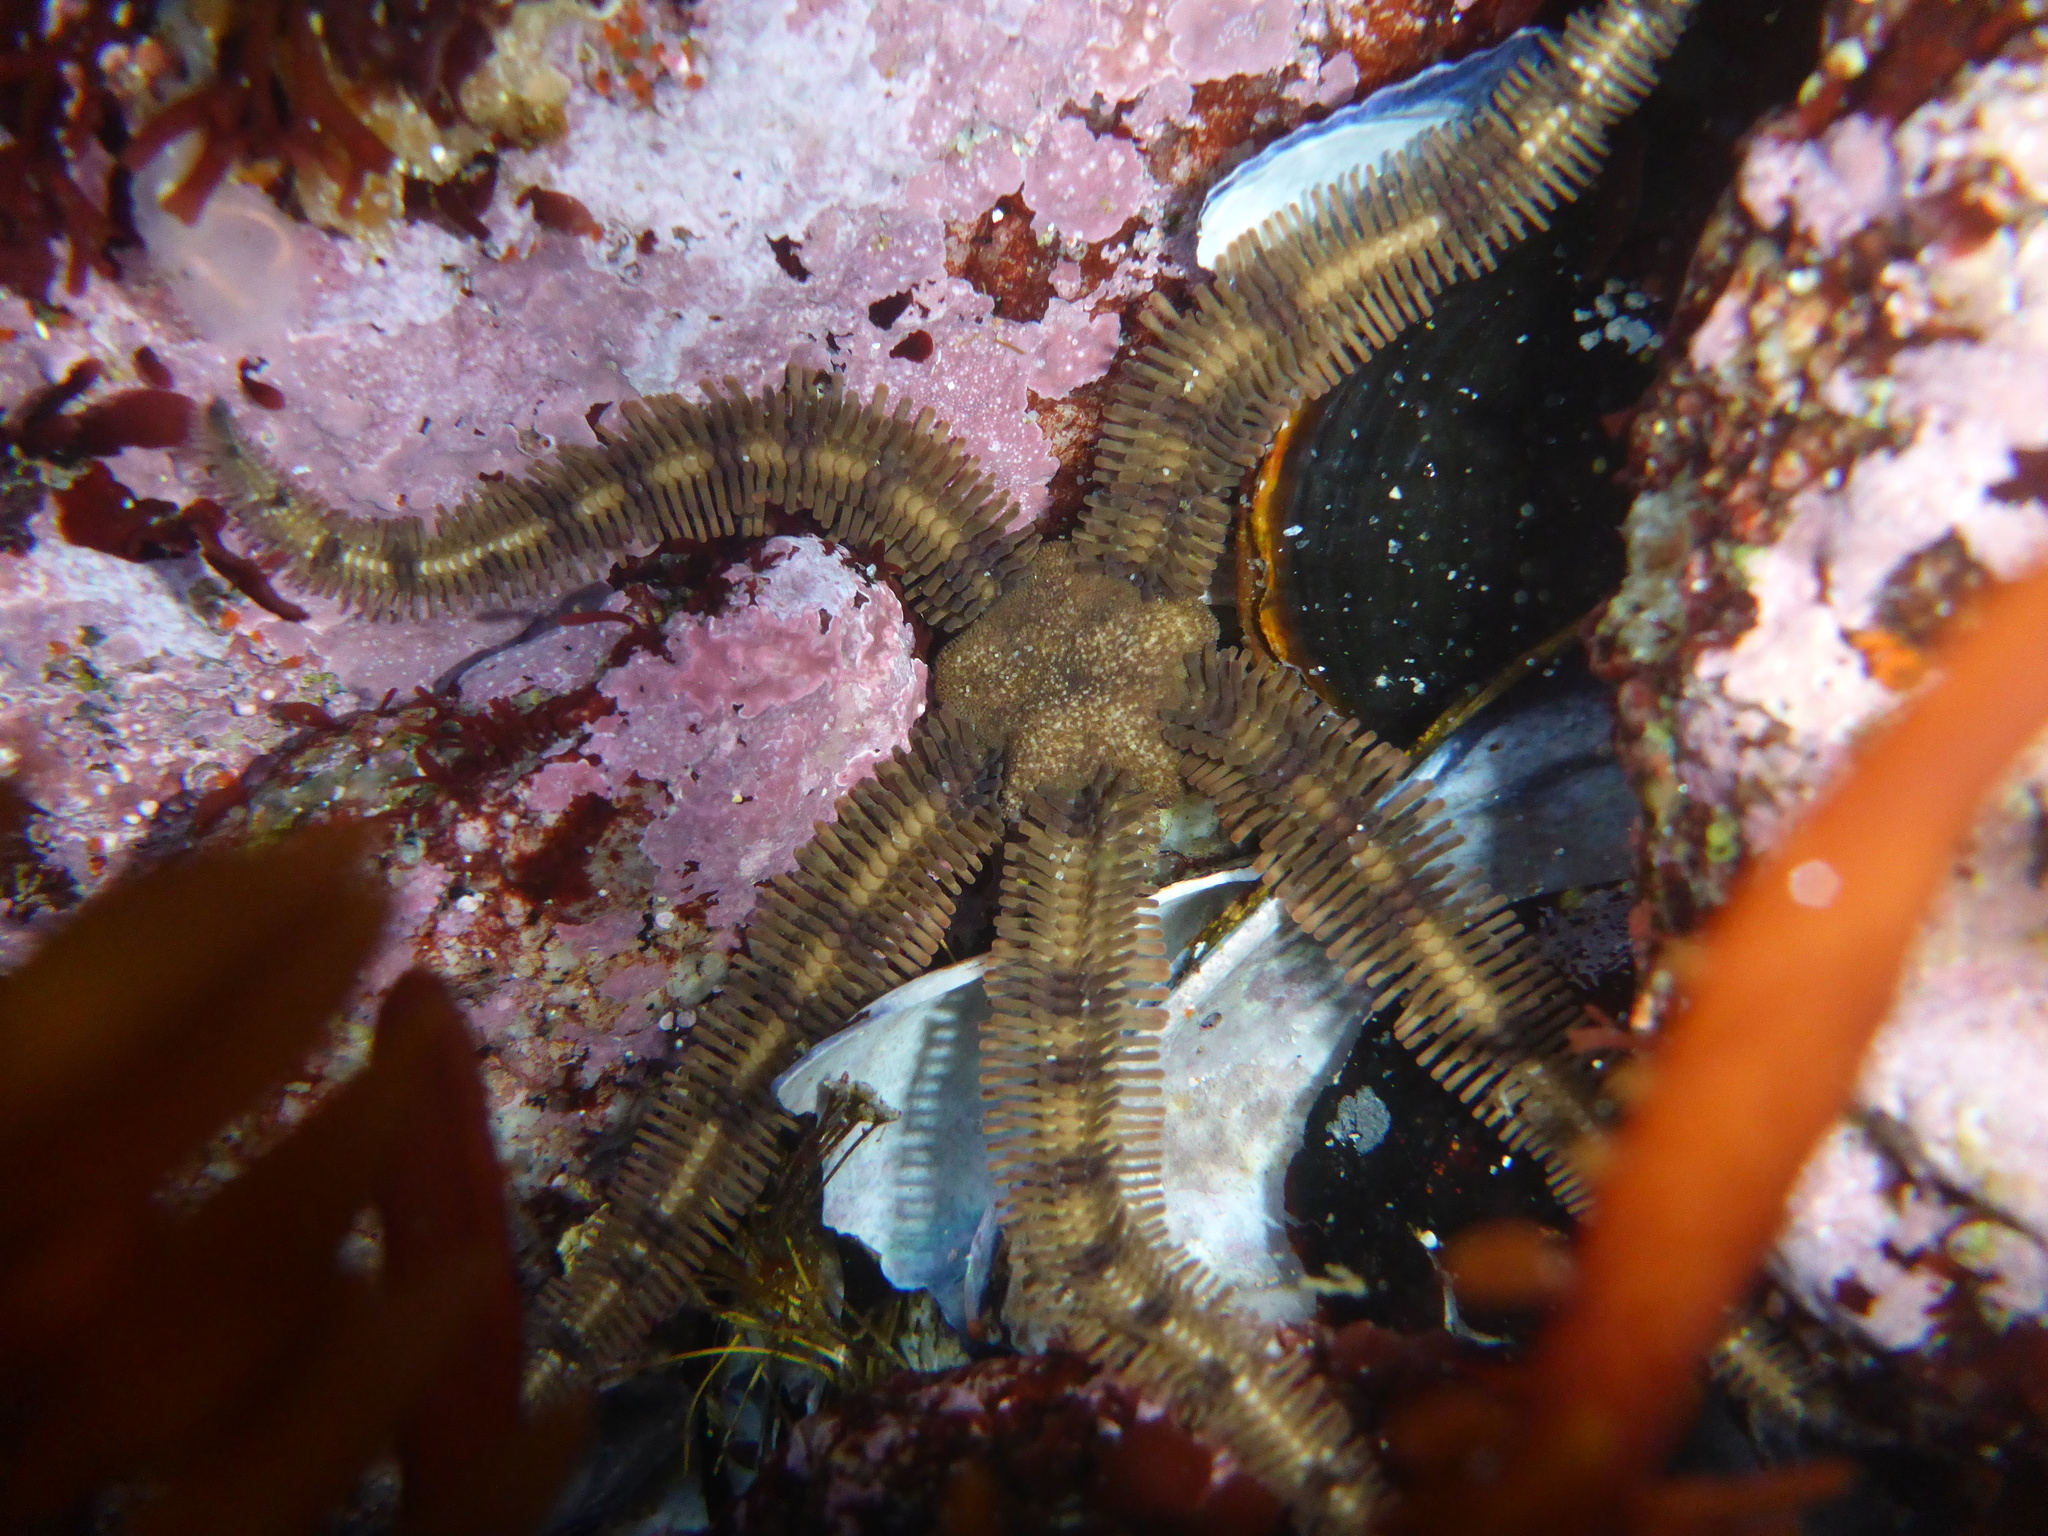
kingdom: Animalia
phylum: Echinodermata
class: Ophiuroidea
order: Ophiacanthida
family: Ophiopteridae
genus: Ophiopteris
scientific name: Ophiopteris papillosa
